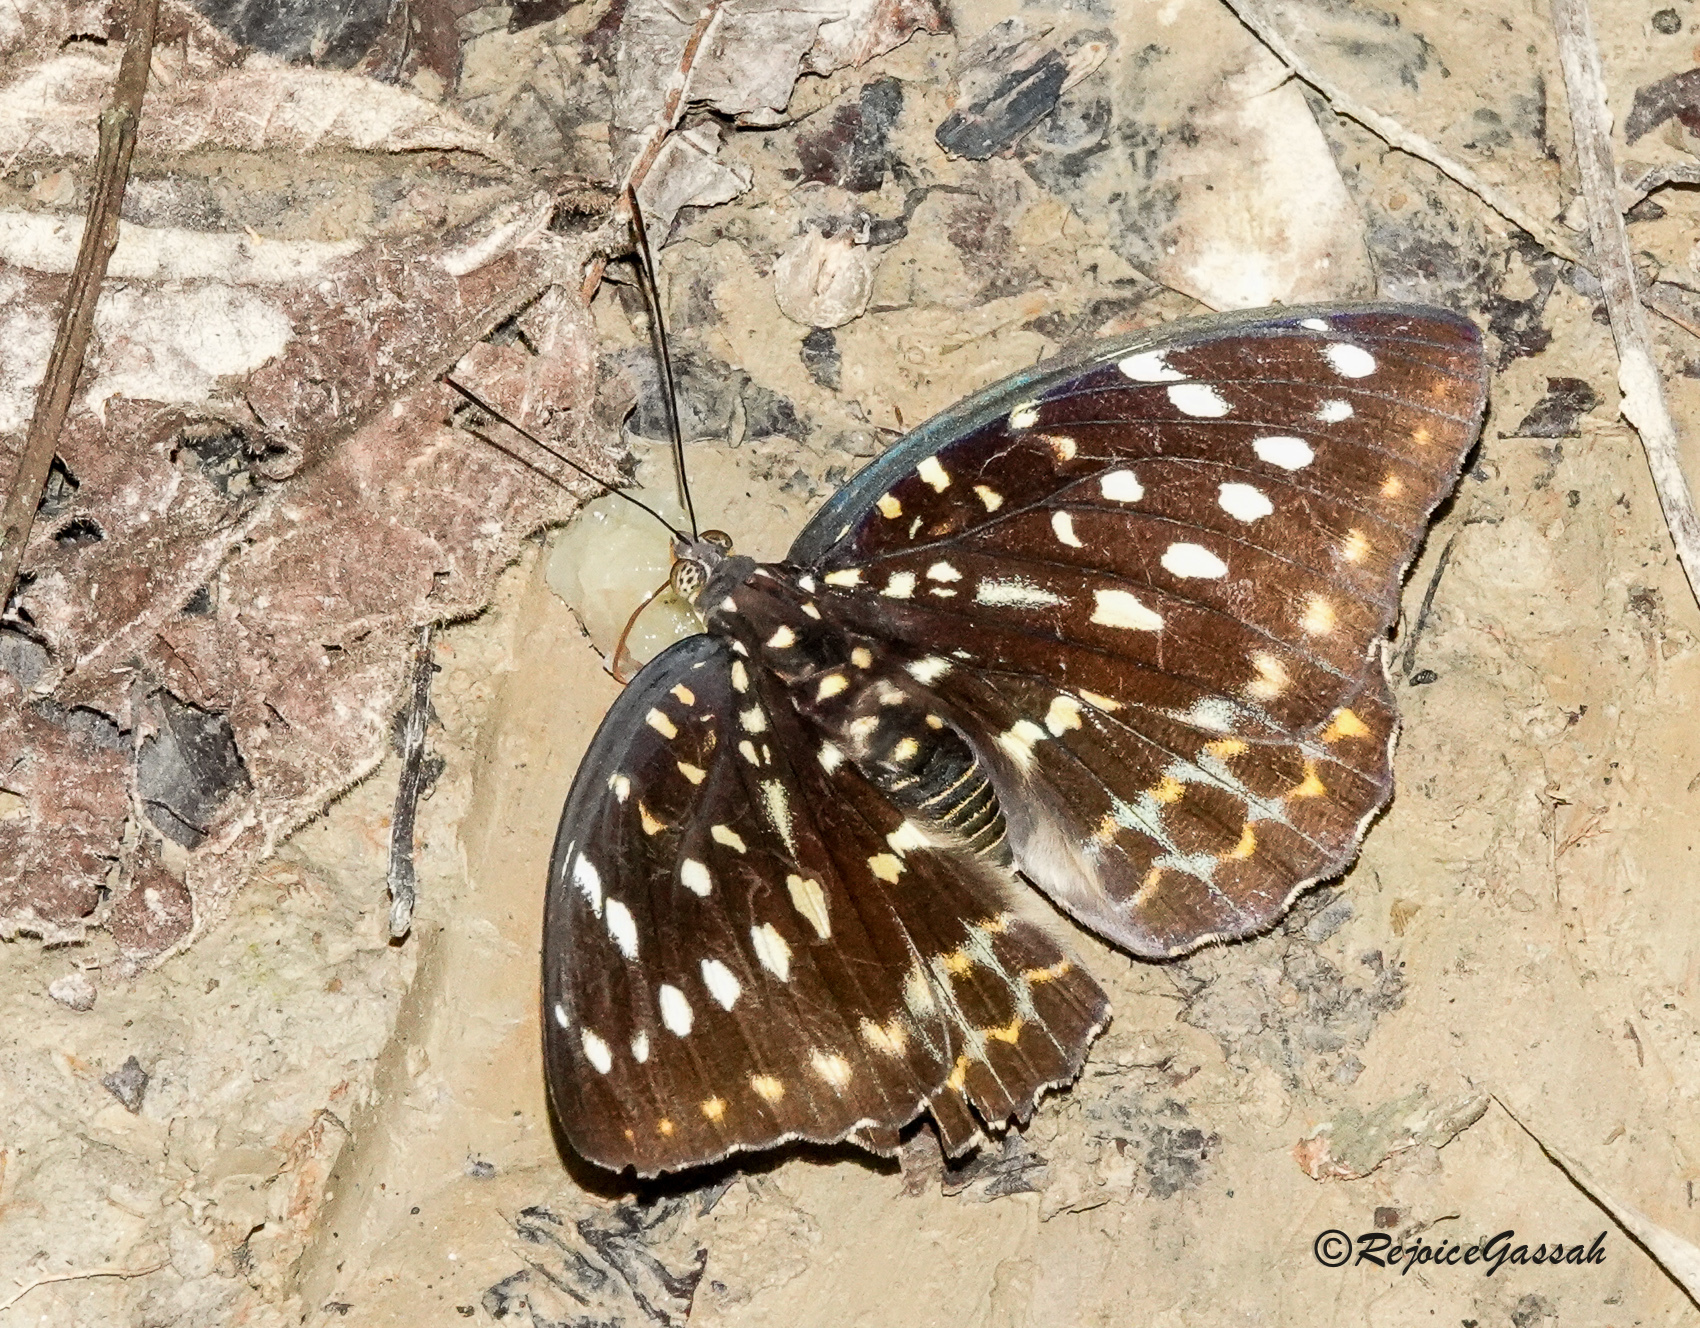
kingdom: Animalia
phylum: Arthropoda
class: Insecta
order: Lepidoptera
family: Nymphalidae
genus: Lexias
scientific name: Lexias pardalis
